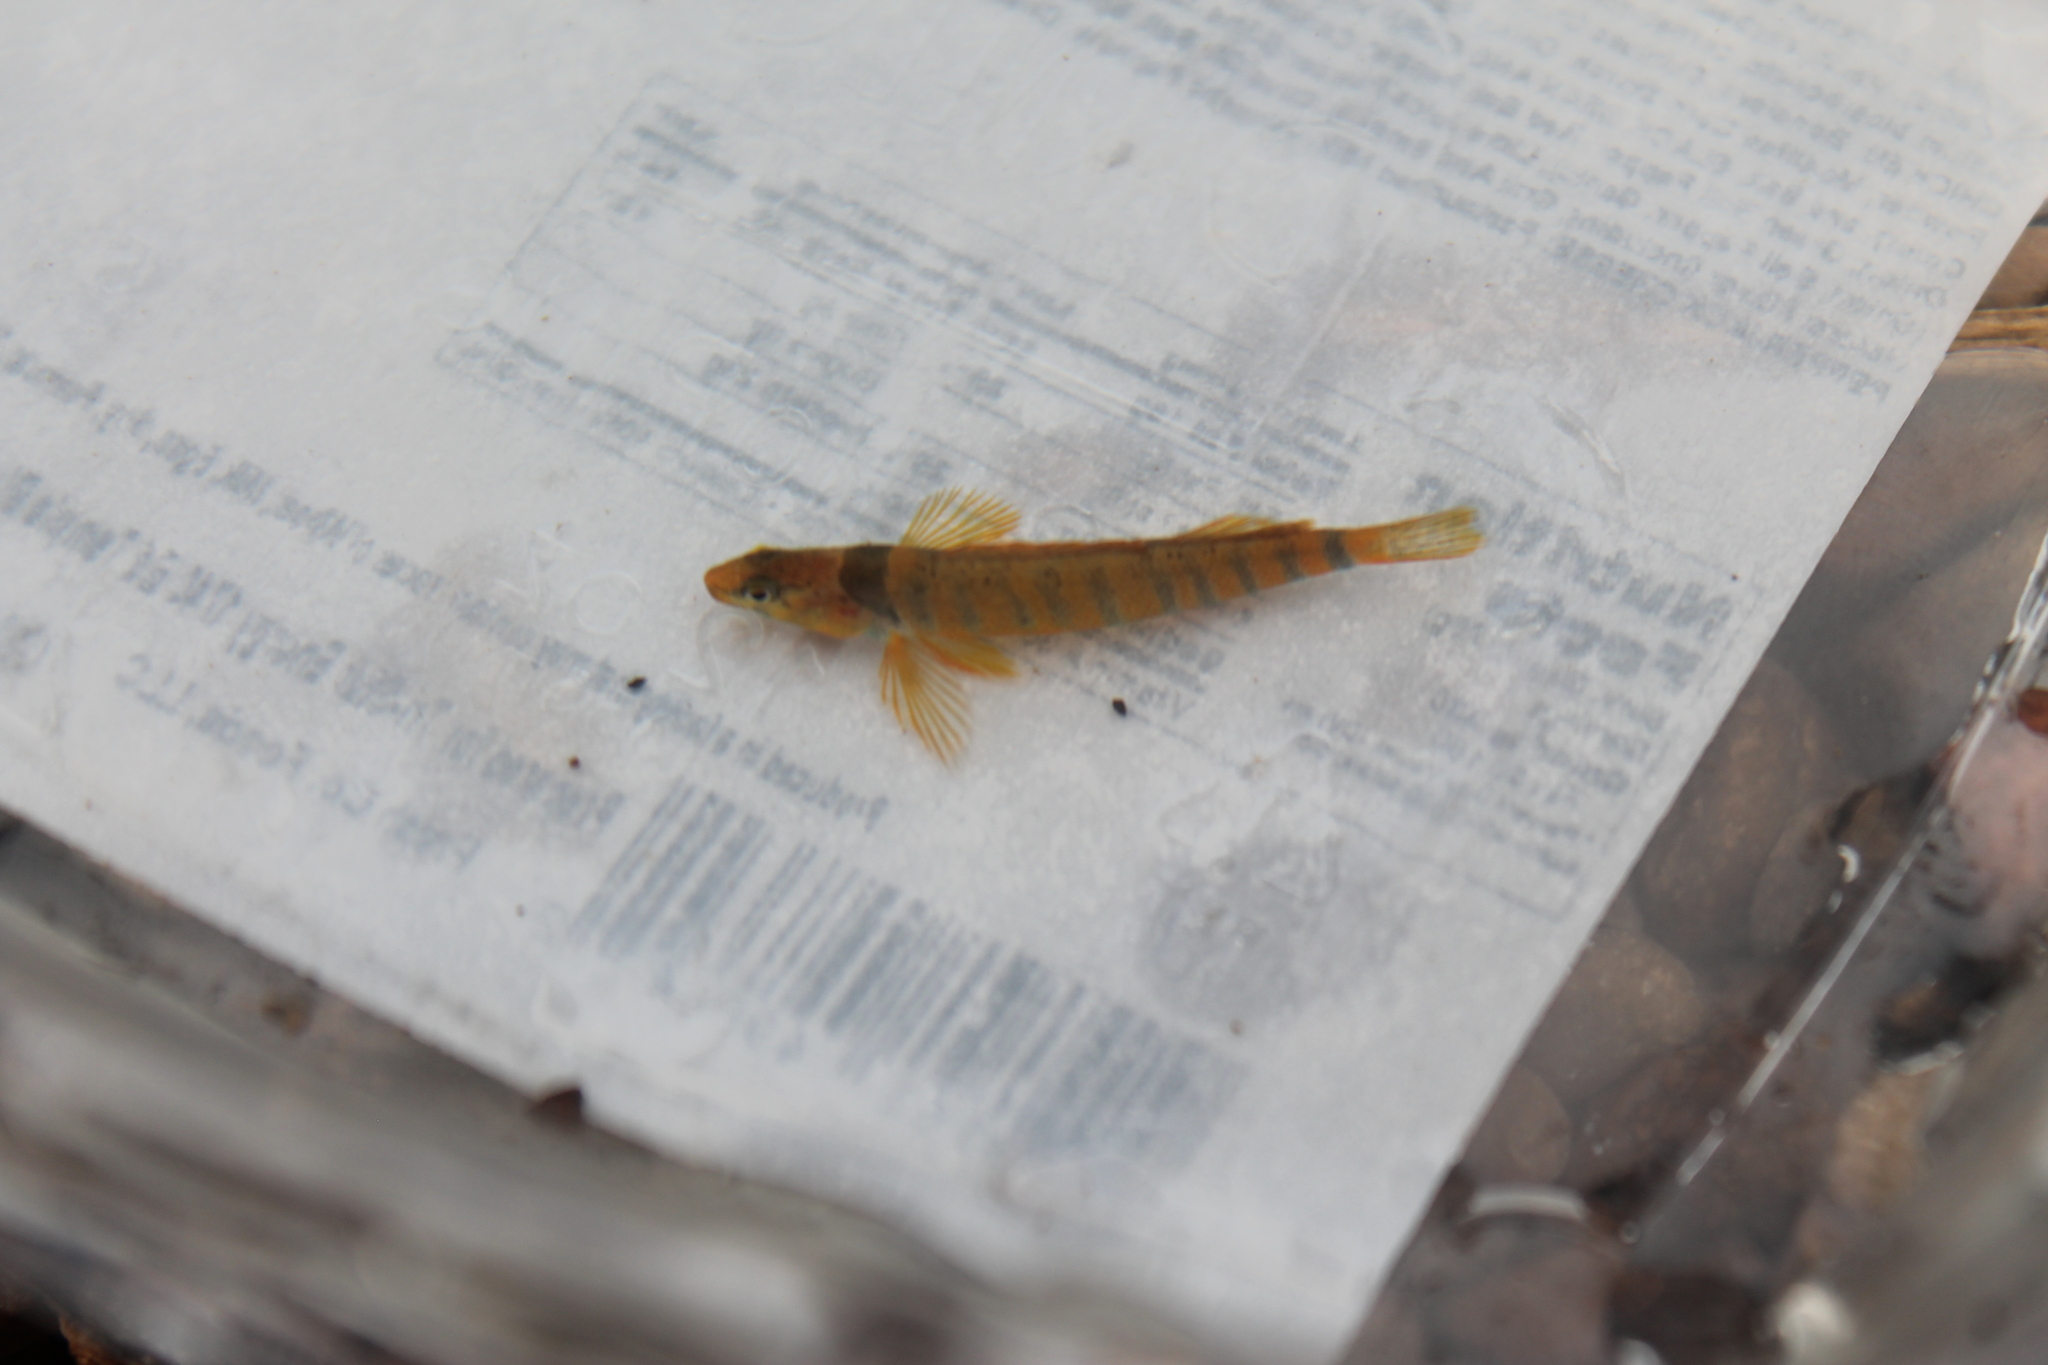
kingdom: Animalia
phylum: Chordata
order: Perciformes
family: Percidae
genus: Etheostoma
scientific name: Etheostoma denoncourti
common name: Golden darter
